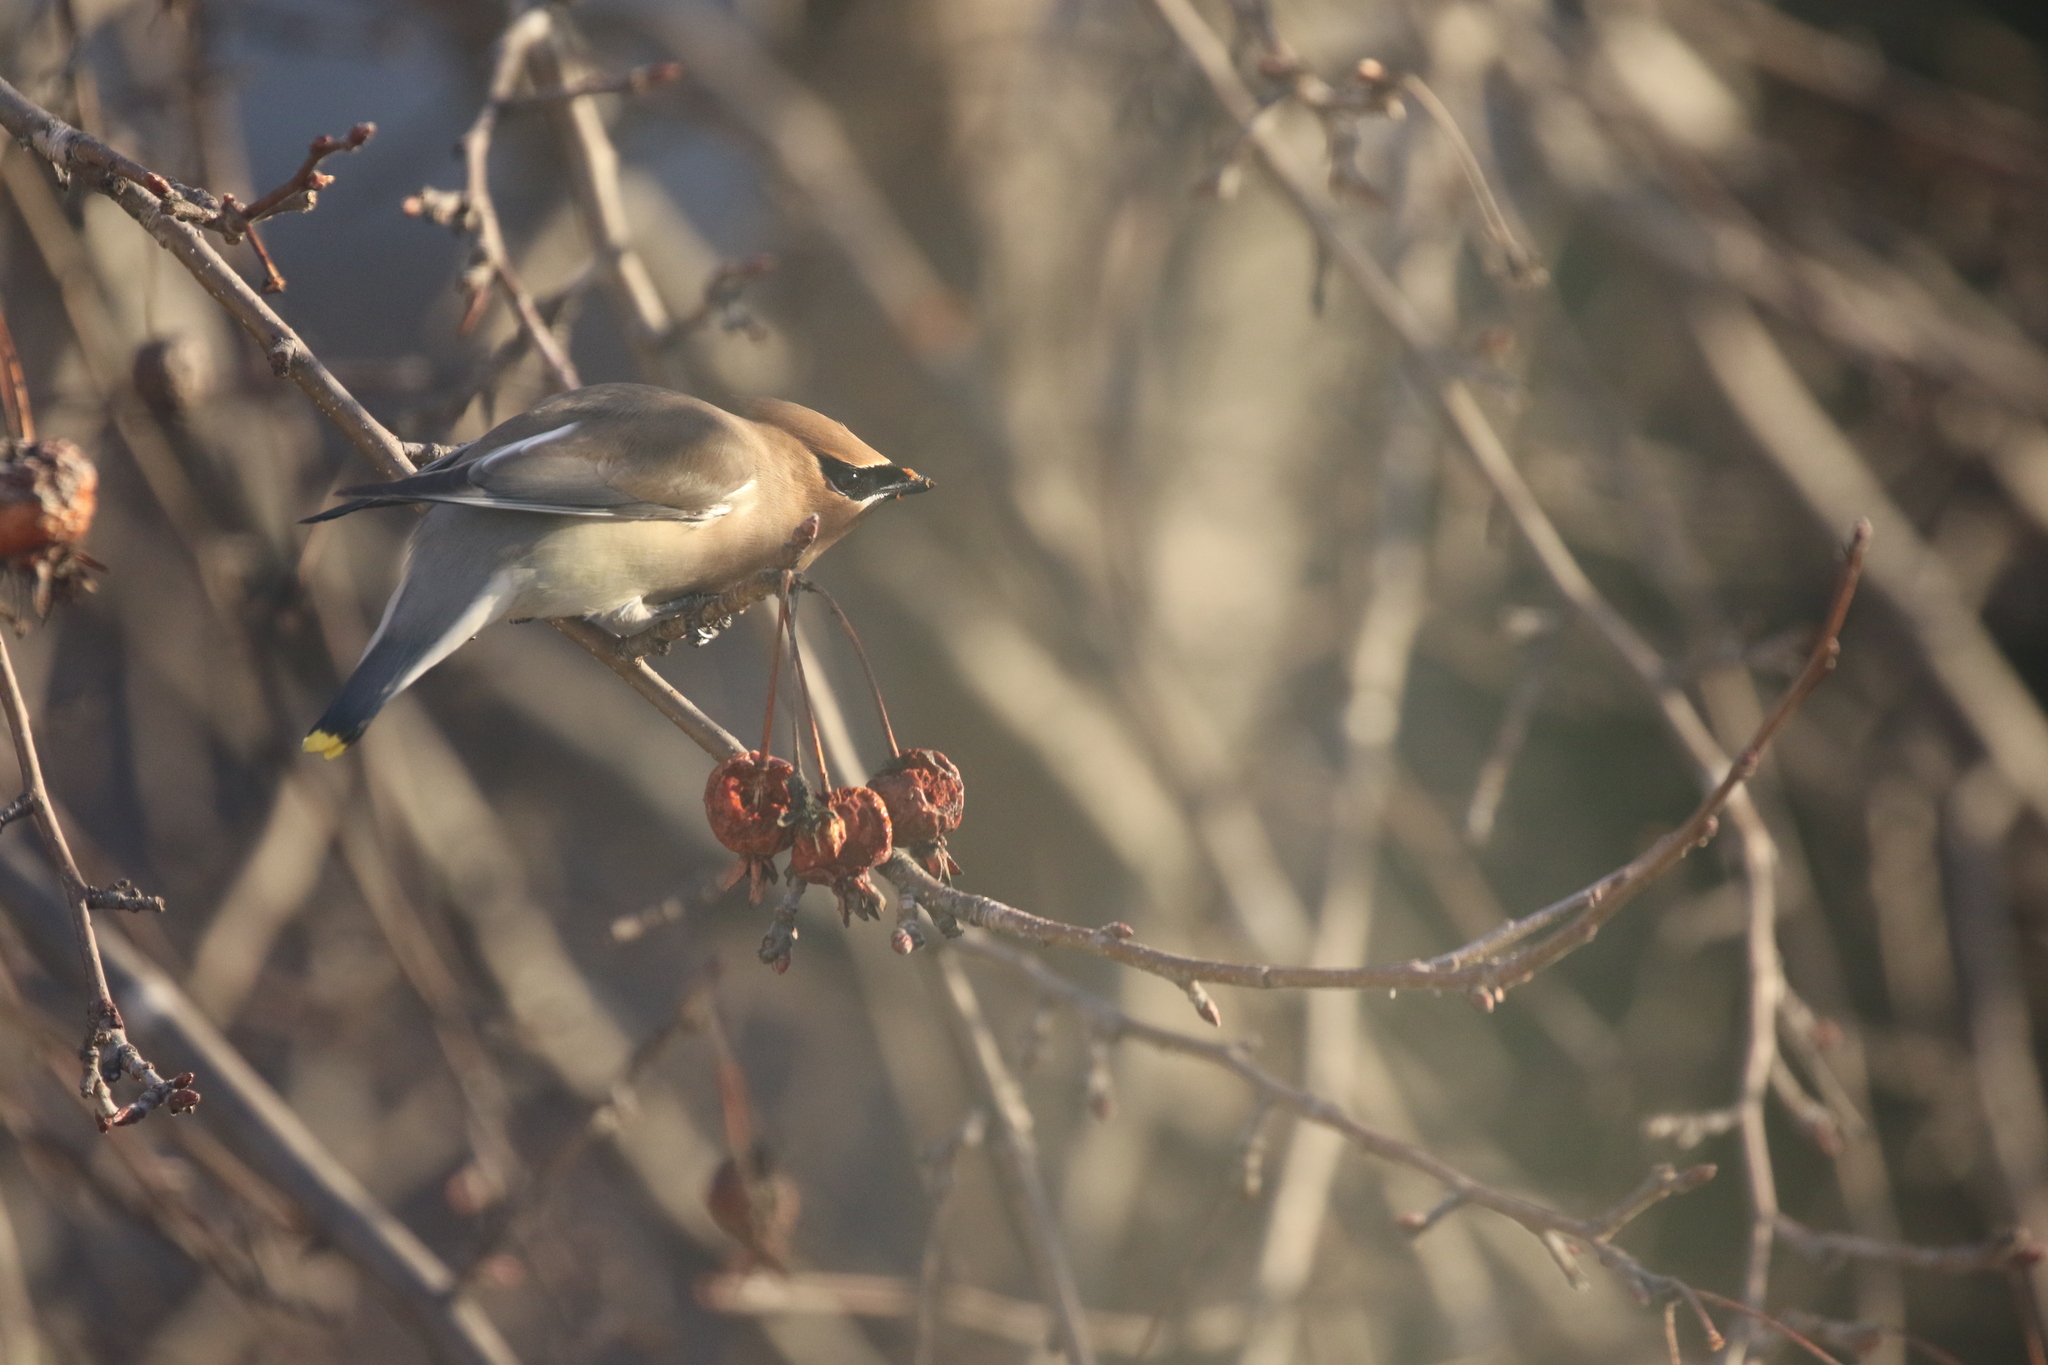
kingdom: Animalia
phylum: Chordata
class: Aves
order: Passeriformes
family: Bombycillidae
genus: Bombycilla
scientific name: Bombycilla cedrorum
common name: Cedar waxwing
